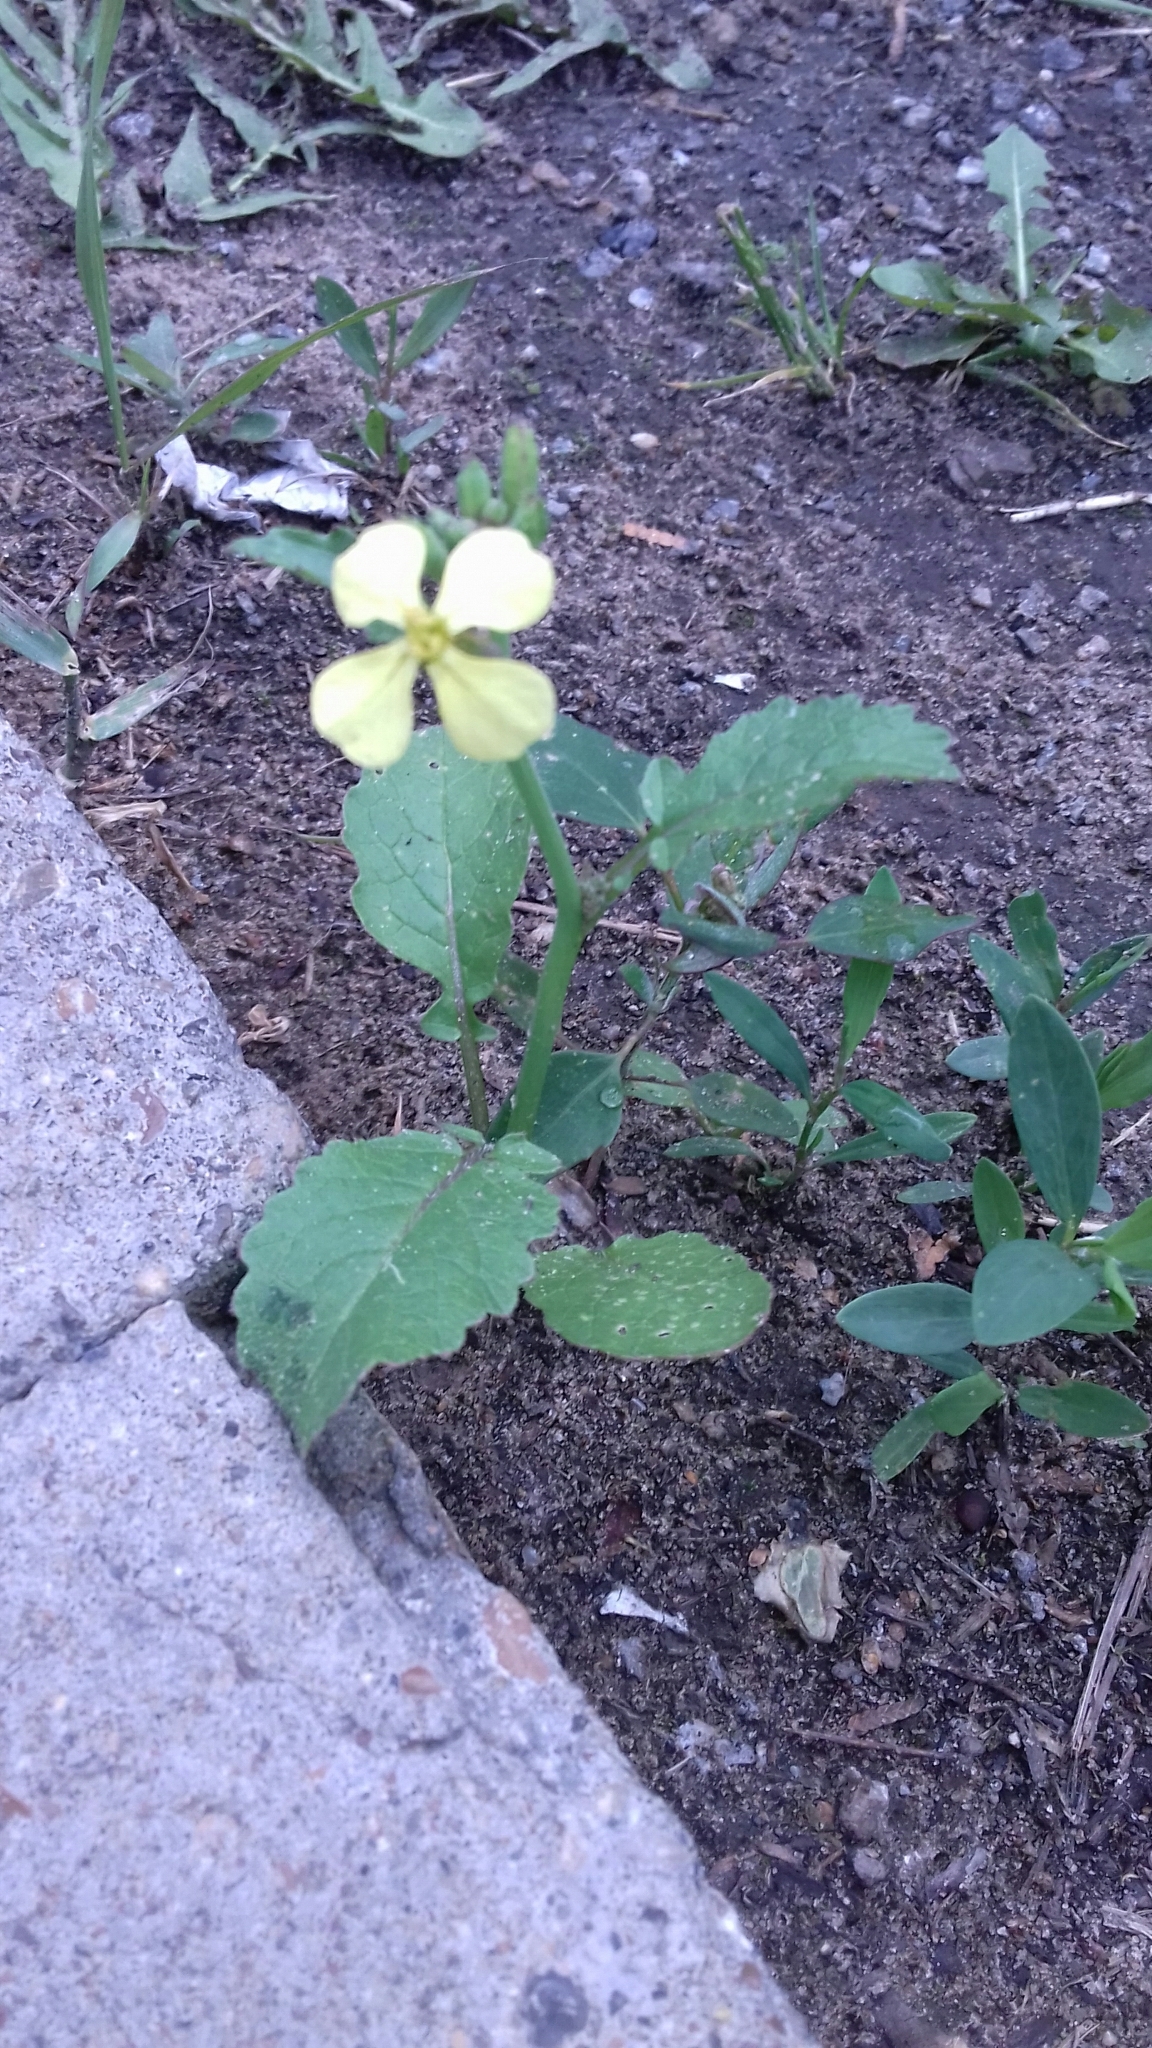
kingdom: Plantae
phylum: Tracheophyta
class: Magnoliopsida
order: Brassicales
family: Brassicaceae
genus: Raphanus
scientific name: Raphanus raphanistrum
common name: Wild radish
